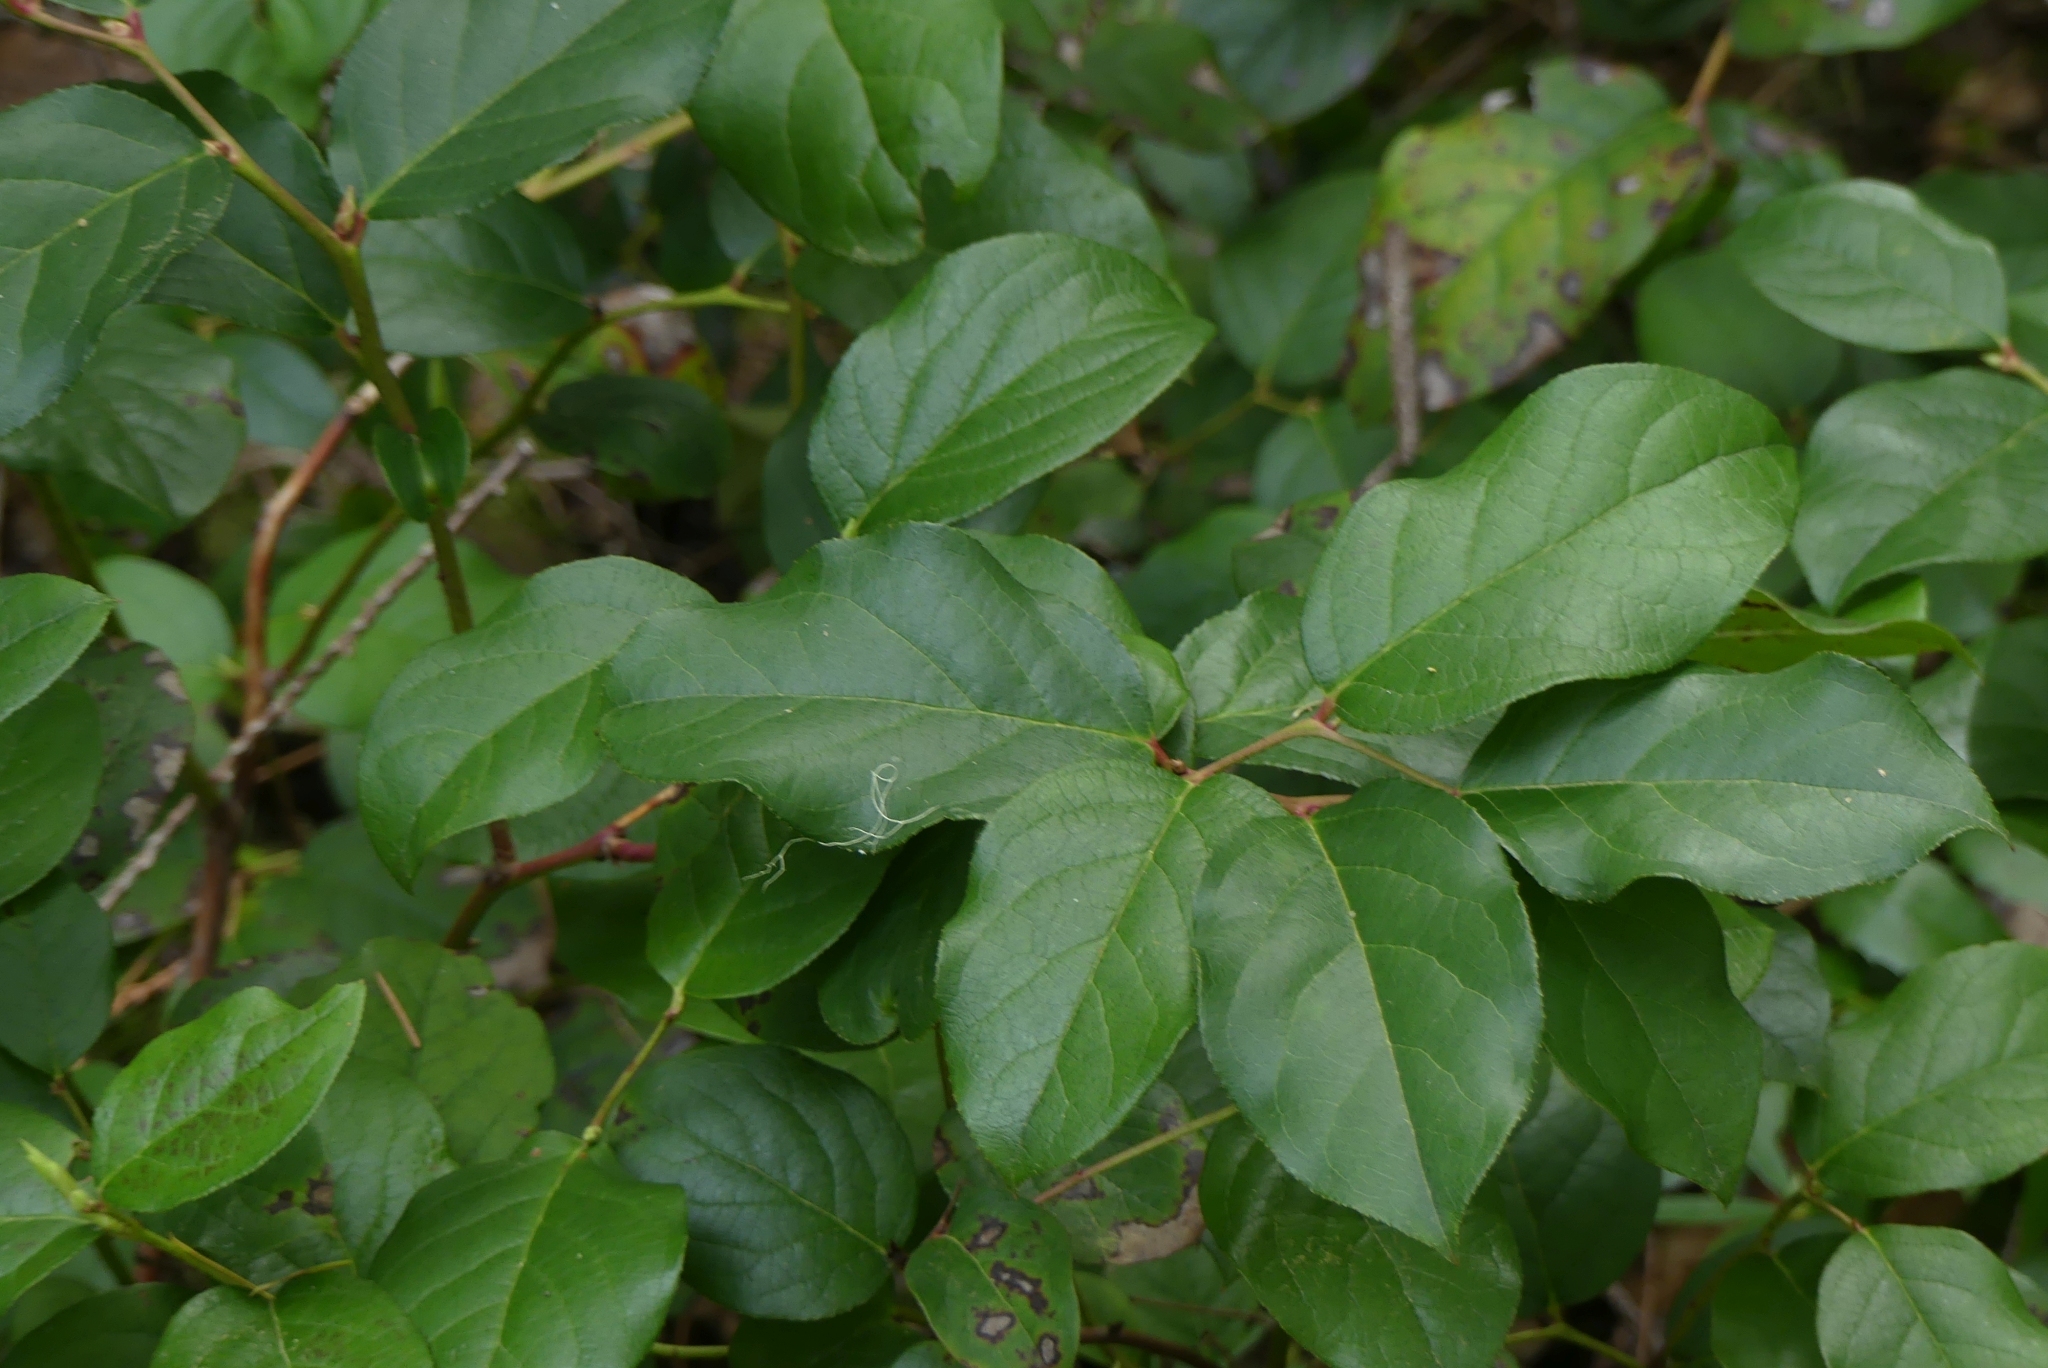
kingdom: Plantae
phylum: Tracheophyta
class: Magnoliopsida
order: Ericales
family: Ericaceae
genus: Gaultheria
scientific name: Gaultheria shallon
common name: Shallon
